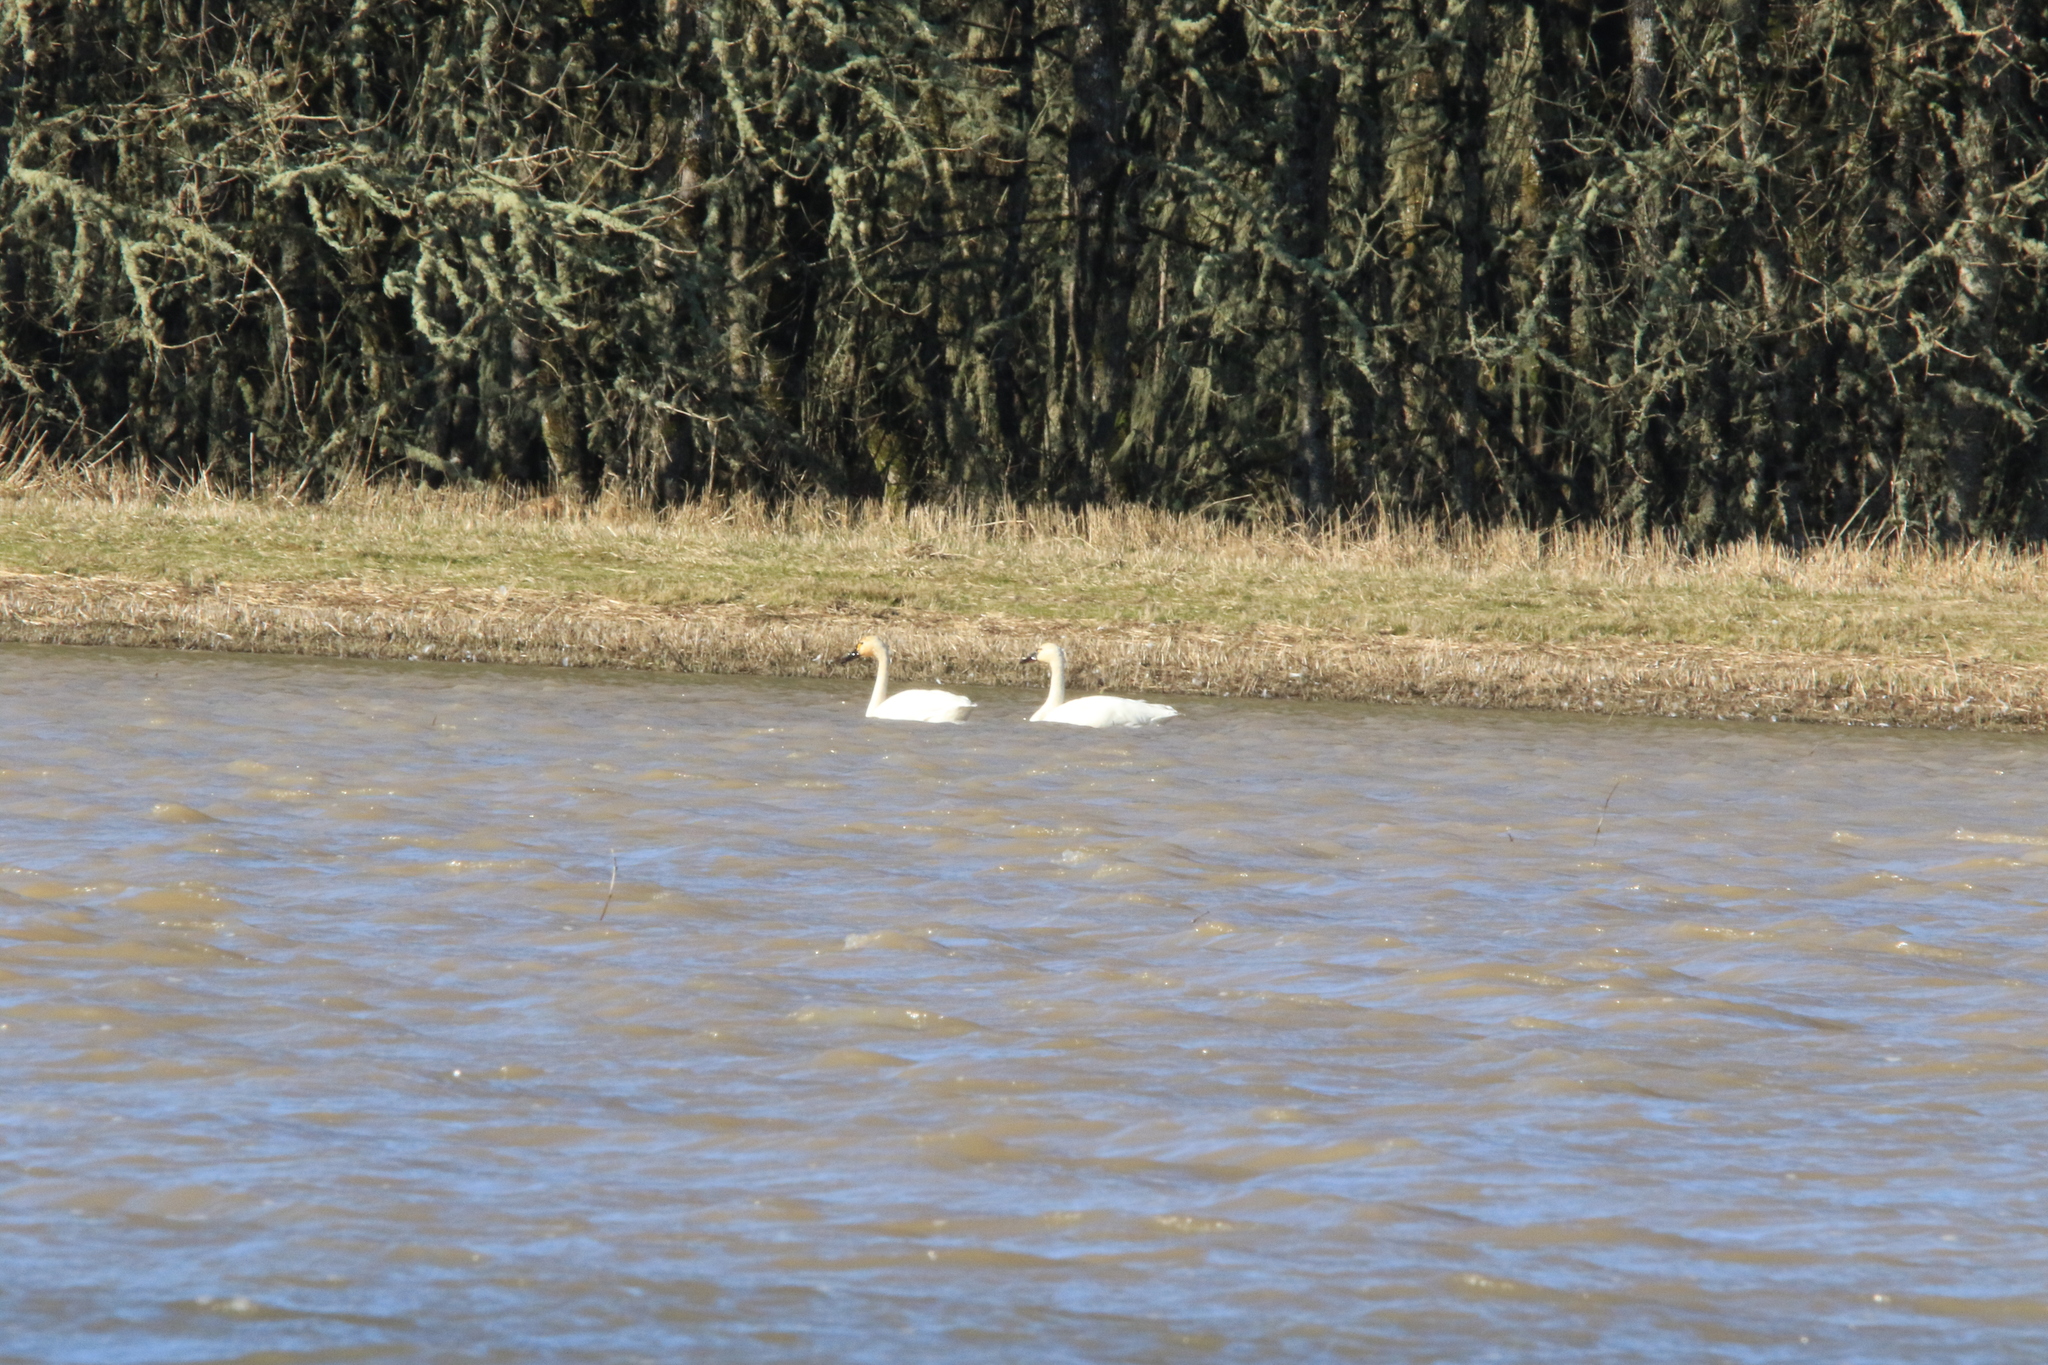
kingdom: Animalia
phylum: Chordata
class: Aves
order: Anseriformes
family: Anatidae
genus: Cygnus
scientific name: Cygnus columbianus
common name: Tundra swan
